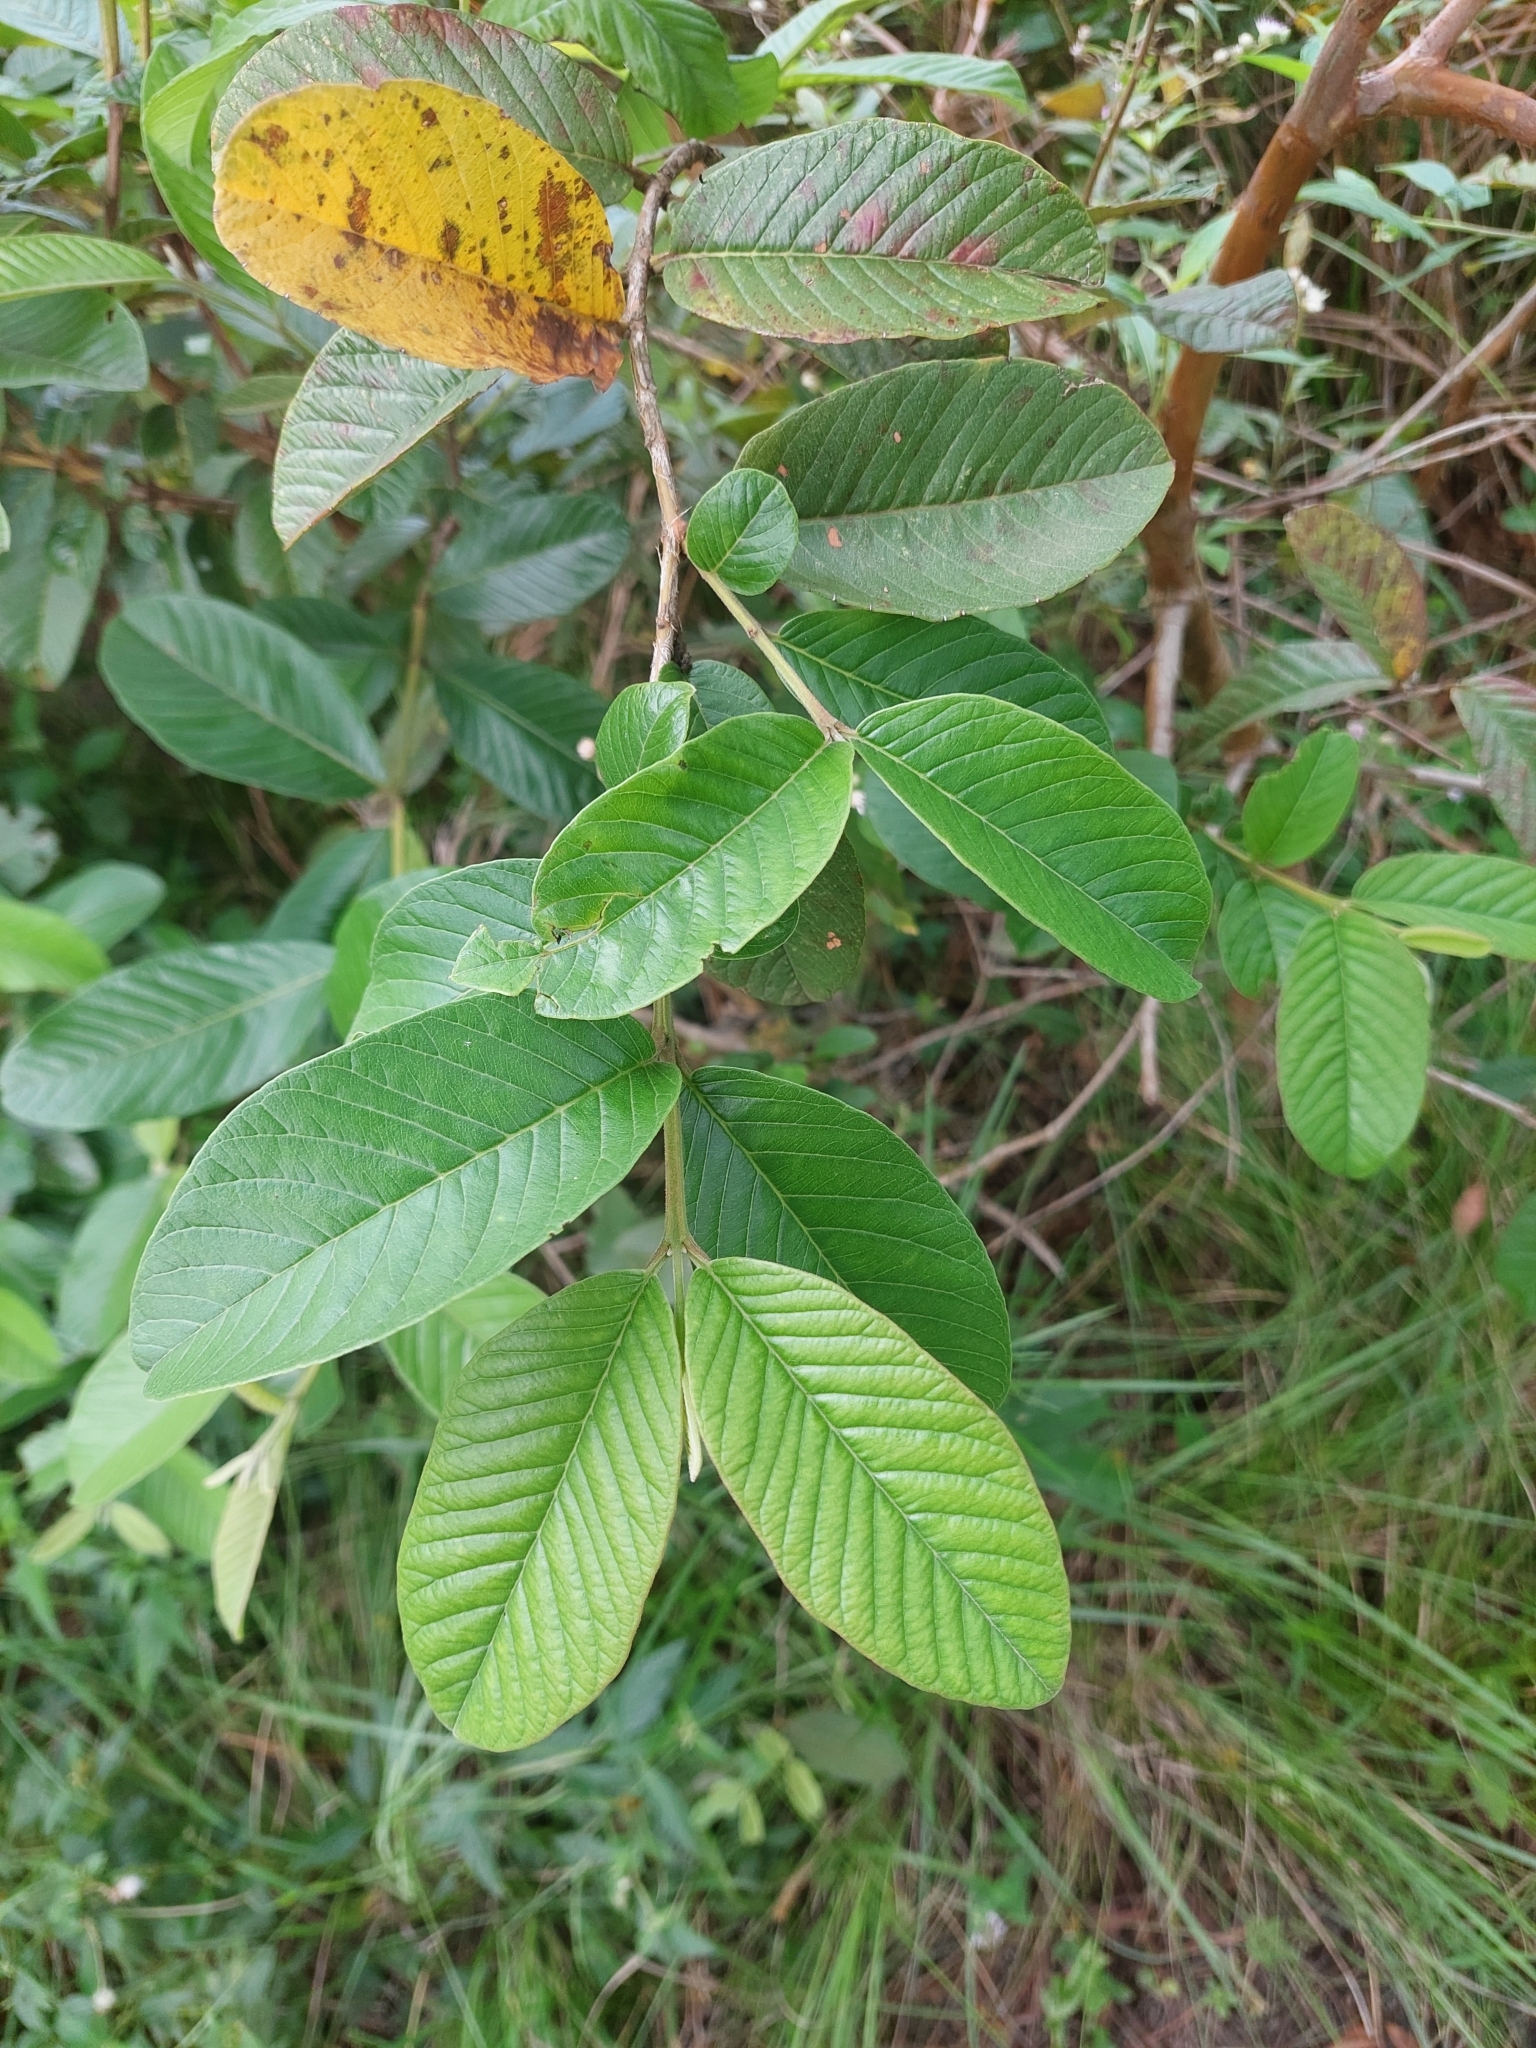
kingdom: Plantae
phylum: Tracheophyta
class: Magnoliopsida
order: Myrtales
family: Myrtaceae
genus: Psidium
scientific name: Psidium guajava
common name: Guava
